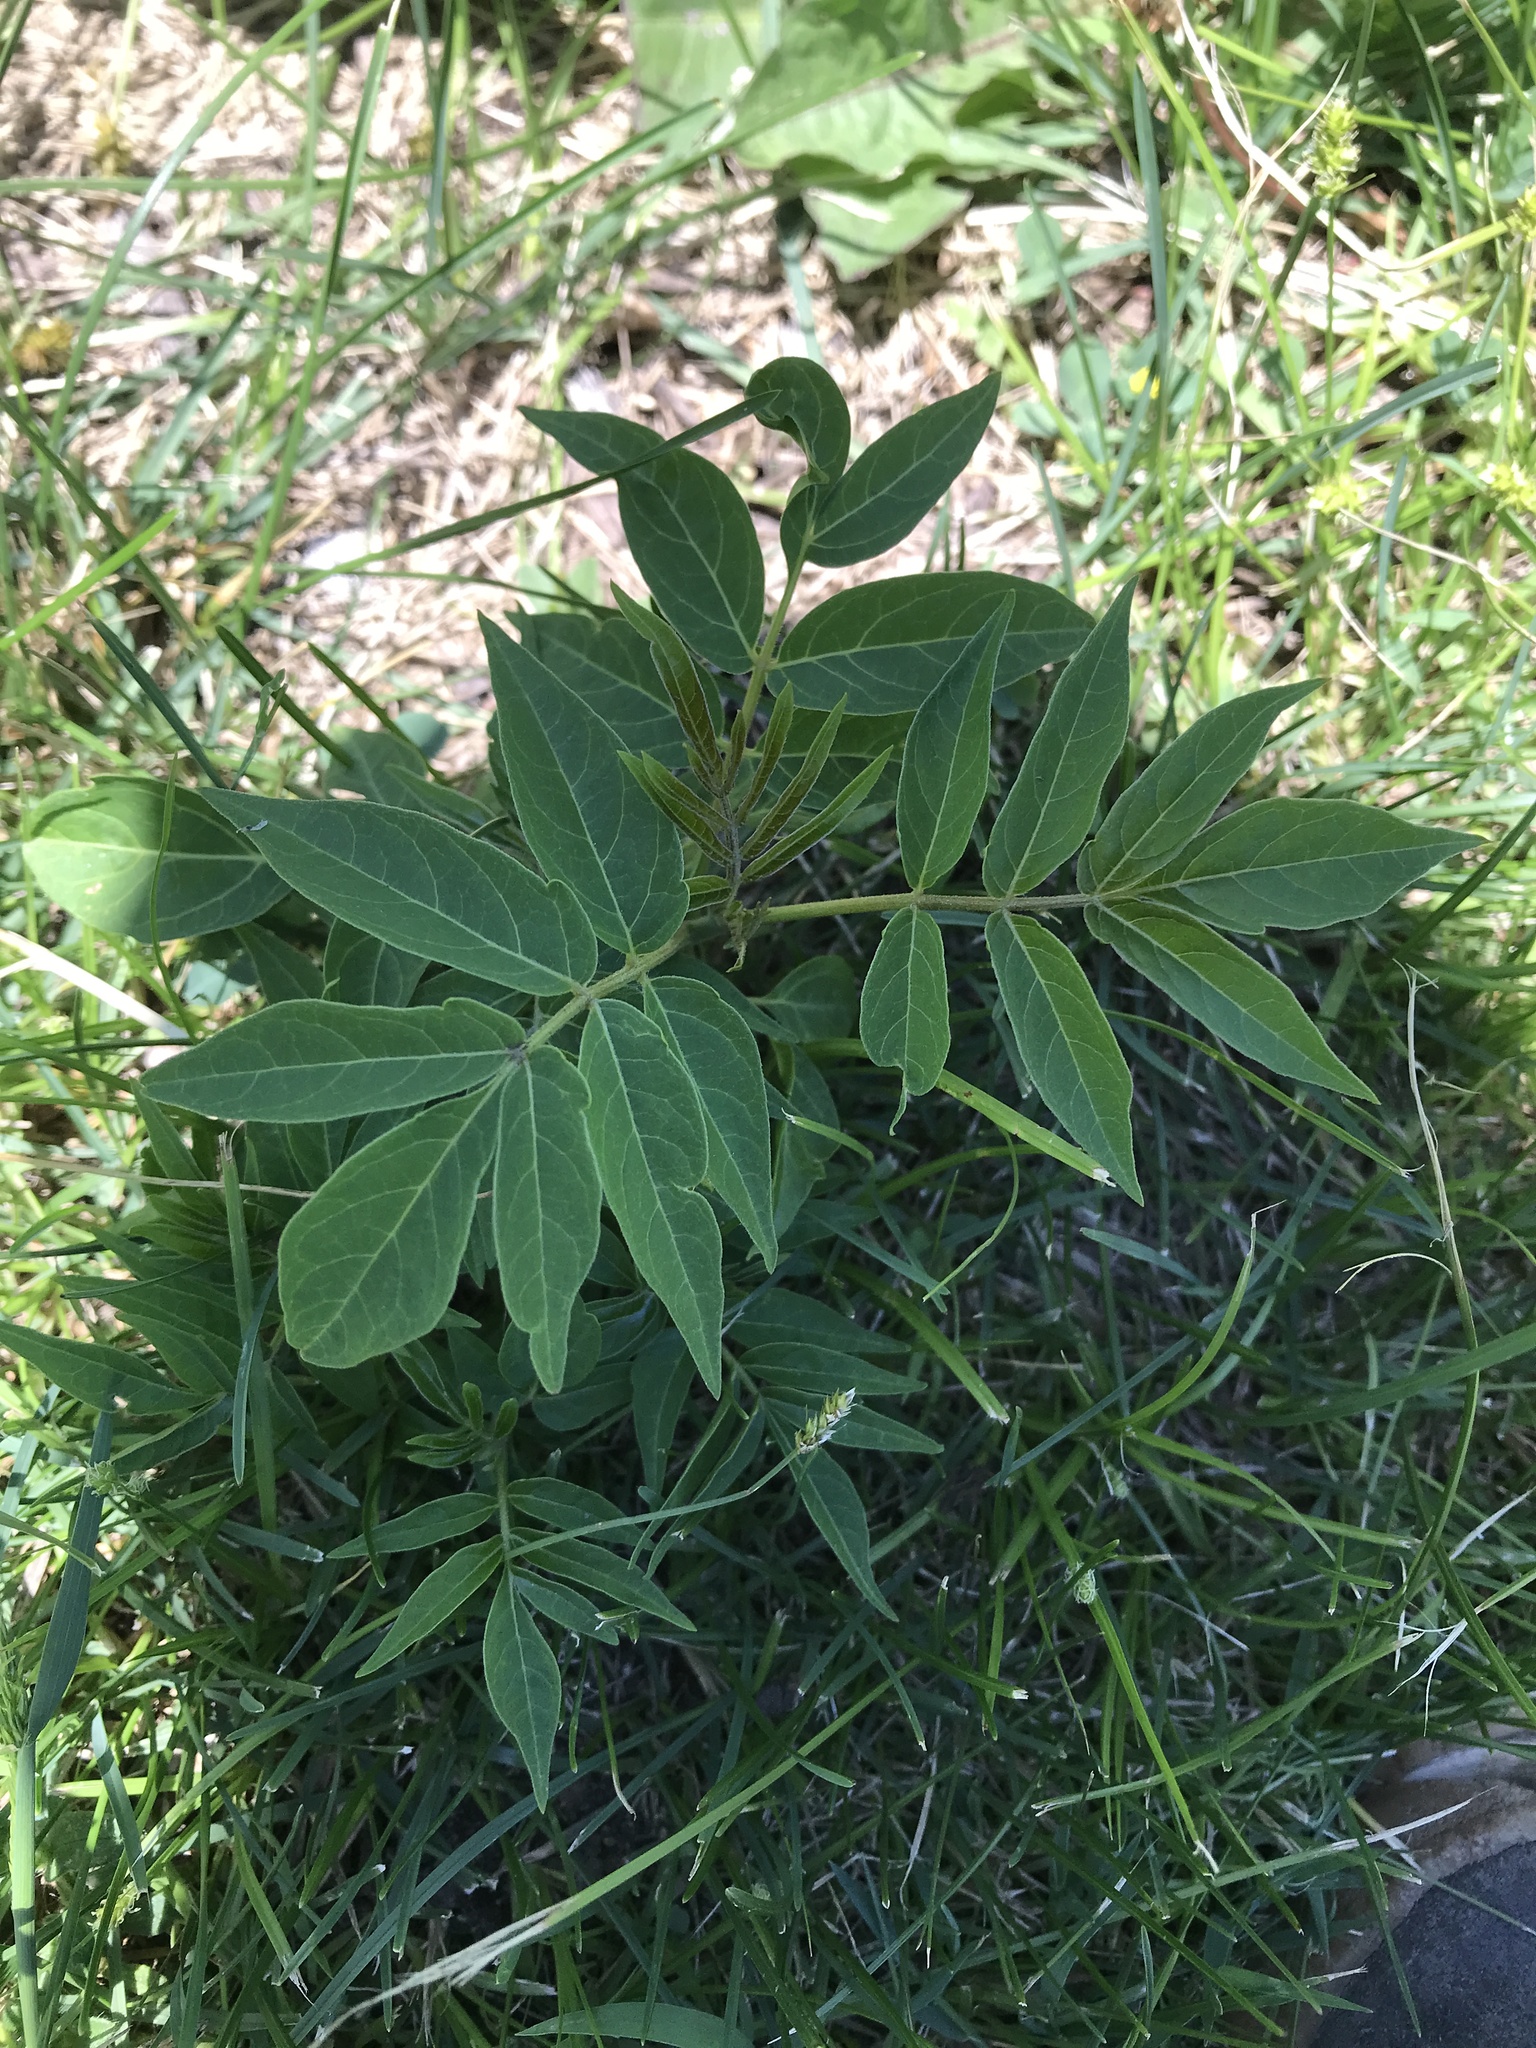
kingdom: Plantae
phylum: Tracheophyta
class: Magnoliopsida
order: Sapindales
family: Simaroubaceae
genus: Ailanthus
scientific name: Ailanthus altissima
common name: Tree-of-heaven
